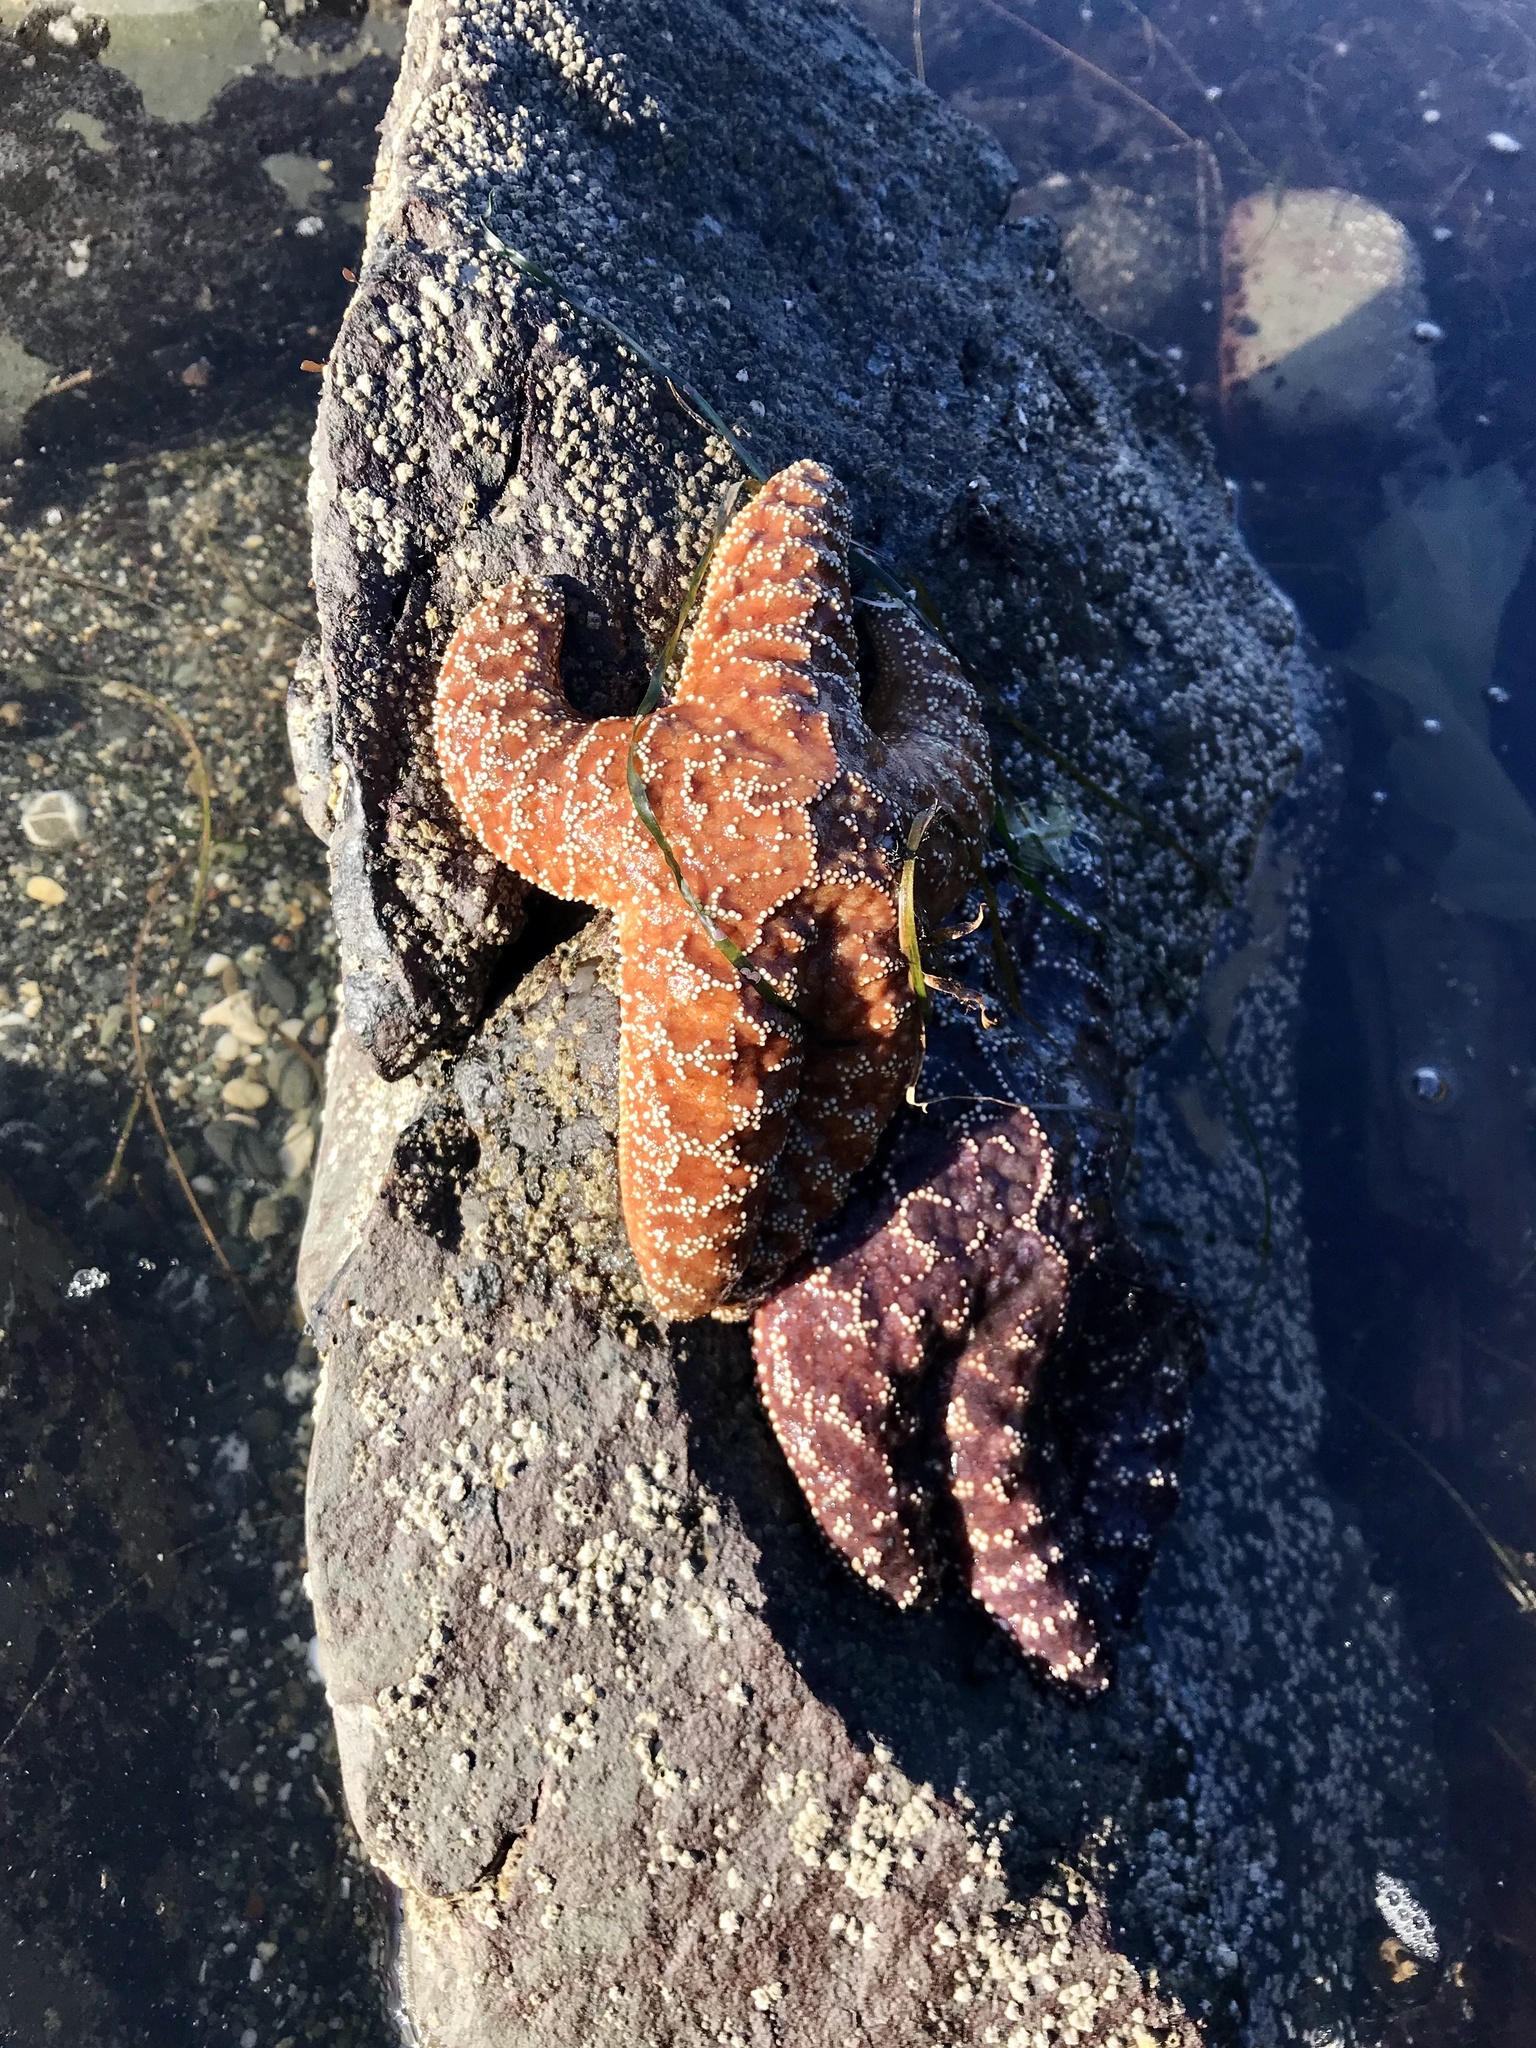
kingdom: Animalia
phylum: Echinodermata
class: Asteroidea
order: Forcipulatida
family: Asteriidae
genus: Pisaster
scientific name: Pisaster ochraceus
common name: Ochre stars
